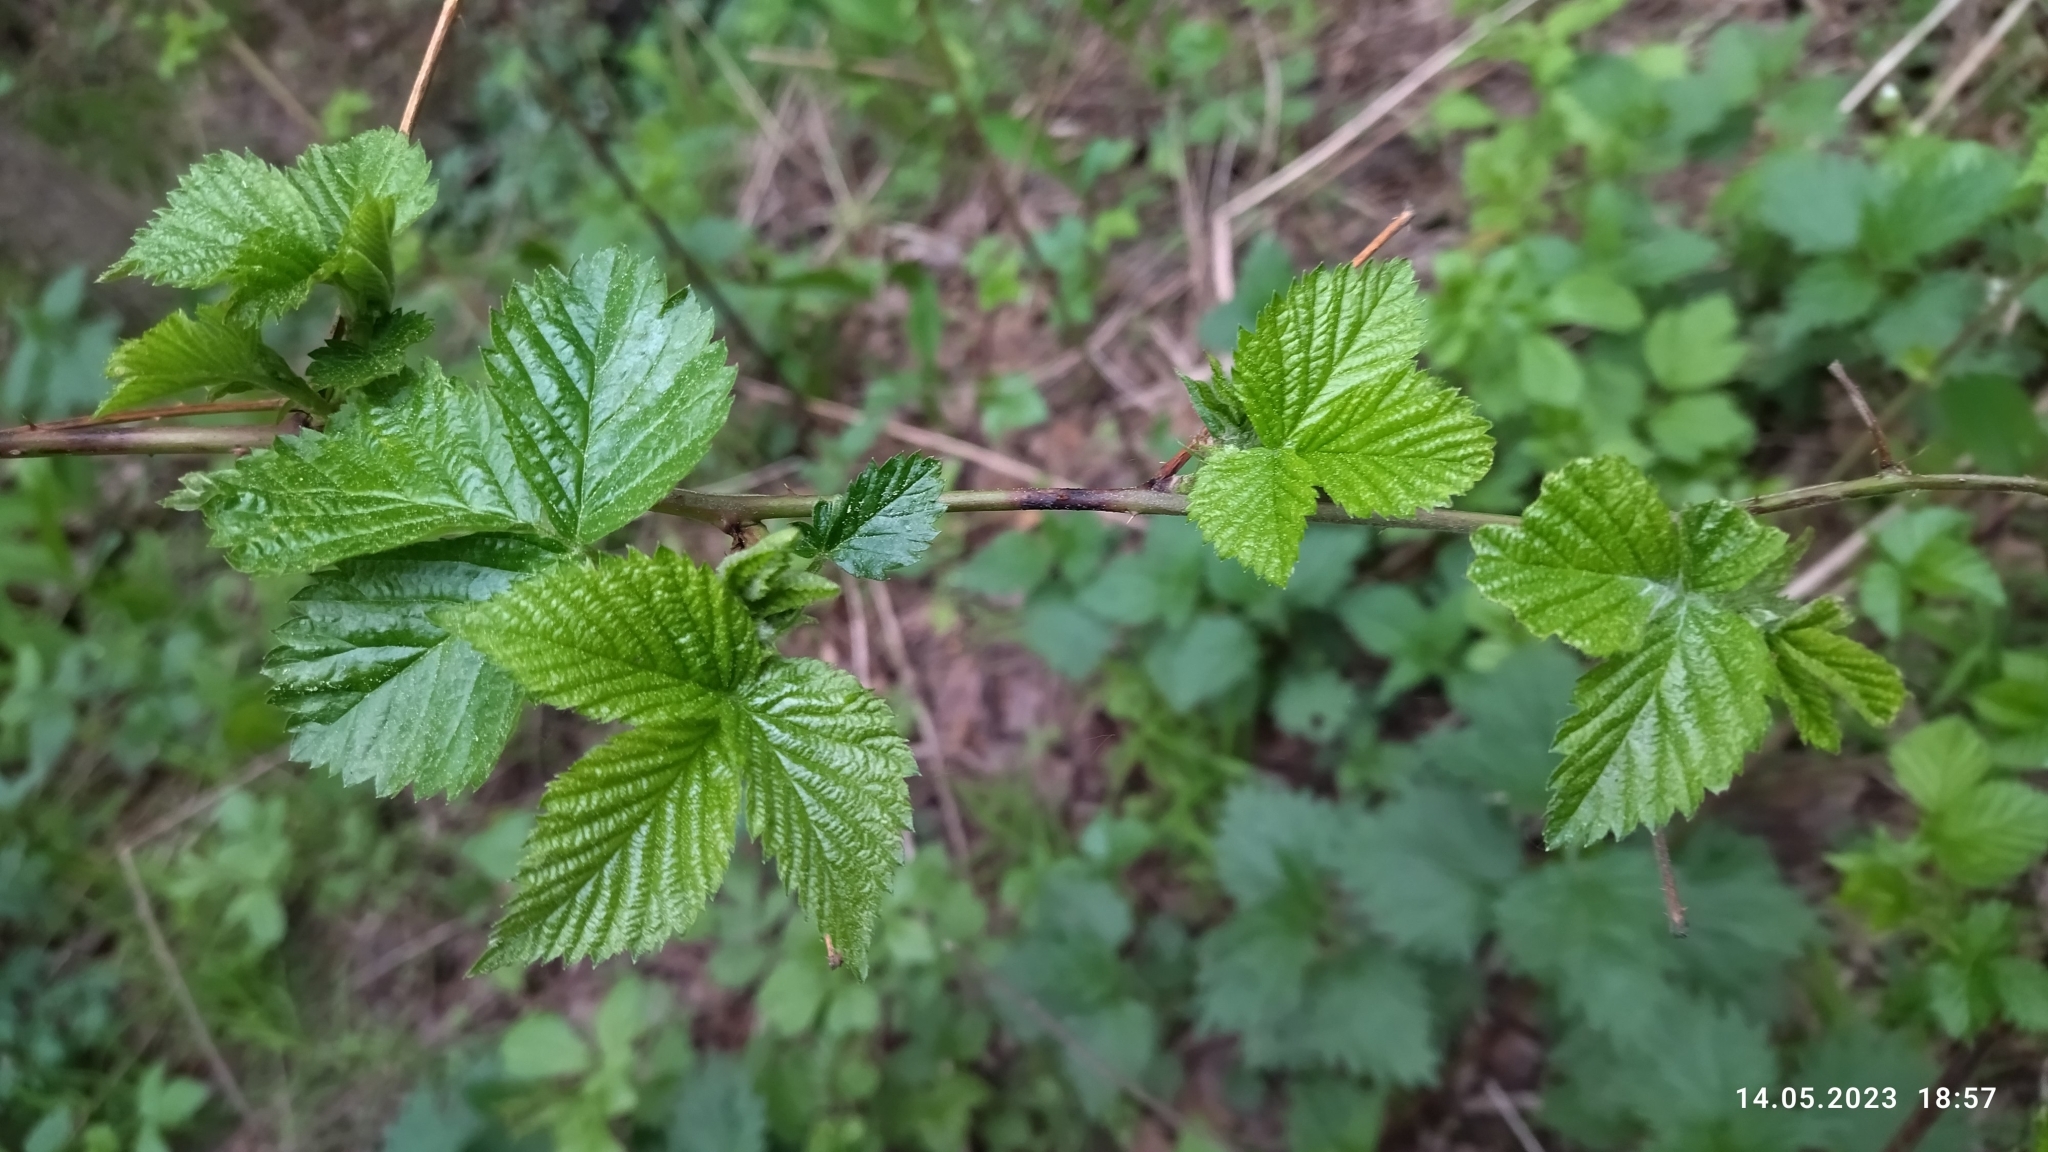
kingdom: Plantae
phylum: Tracheophyta
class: Magnoliopsida
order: Rosales
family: Rosaceae
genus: Rubus
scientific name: Rubus polonicus
